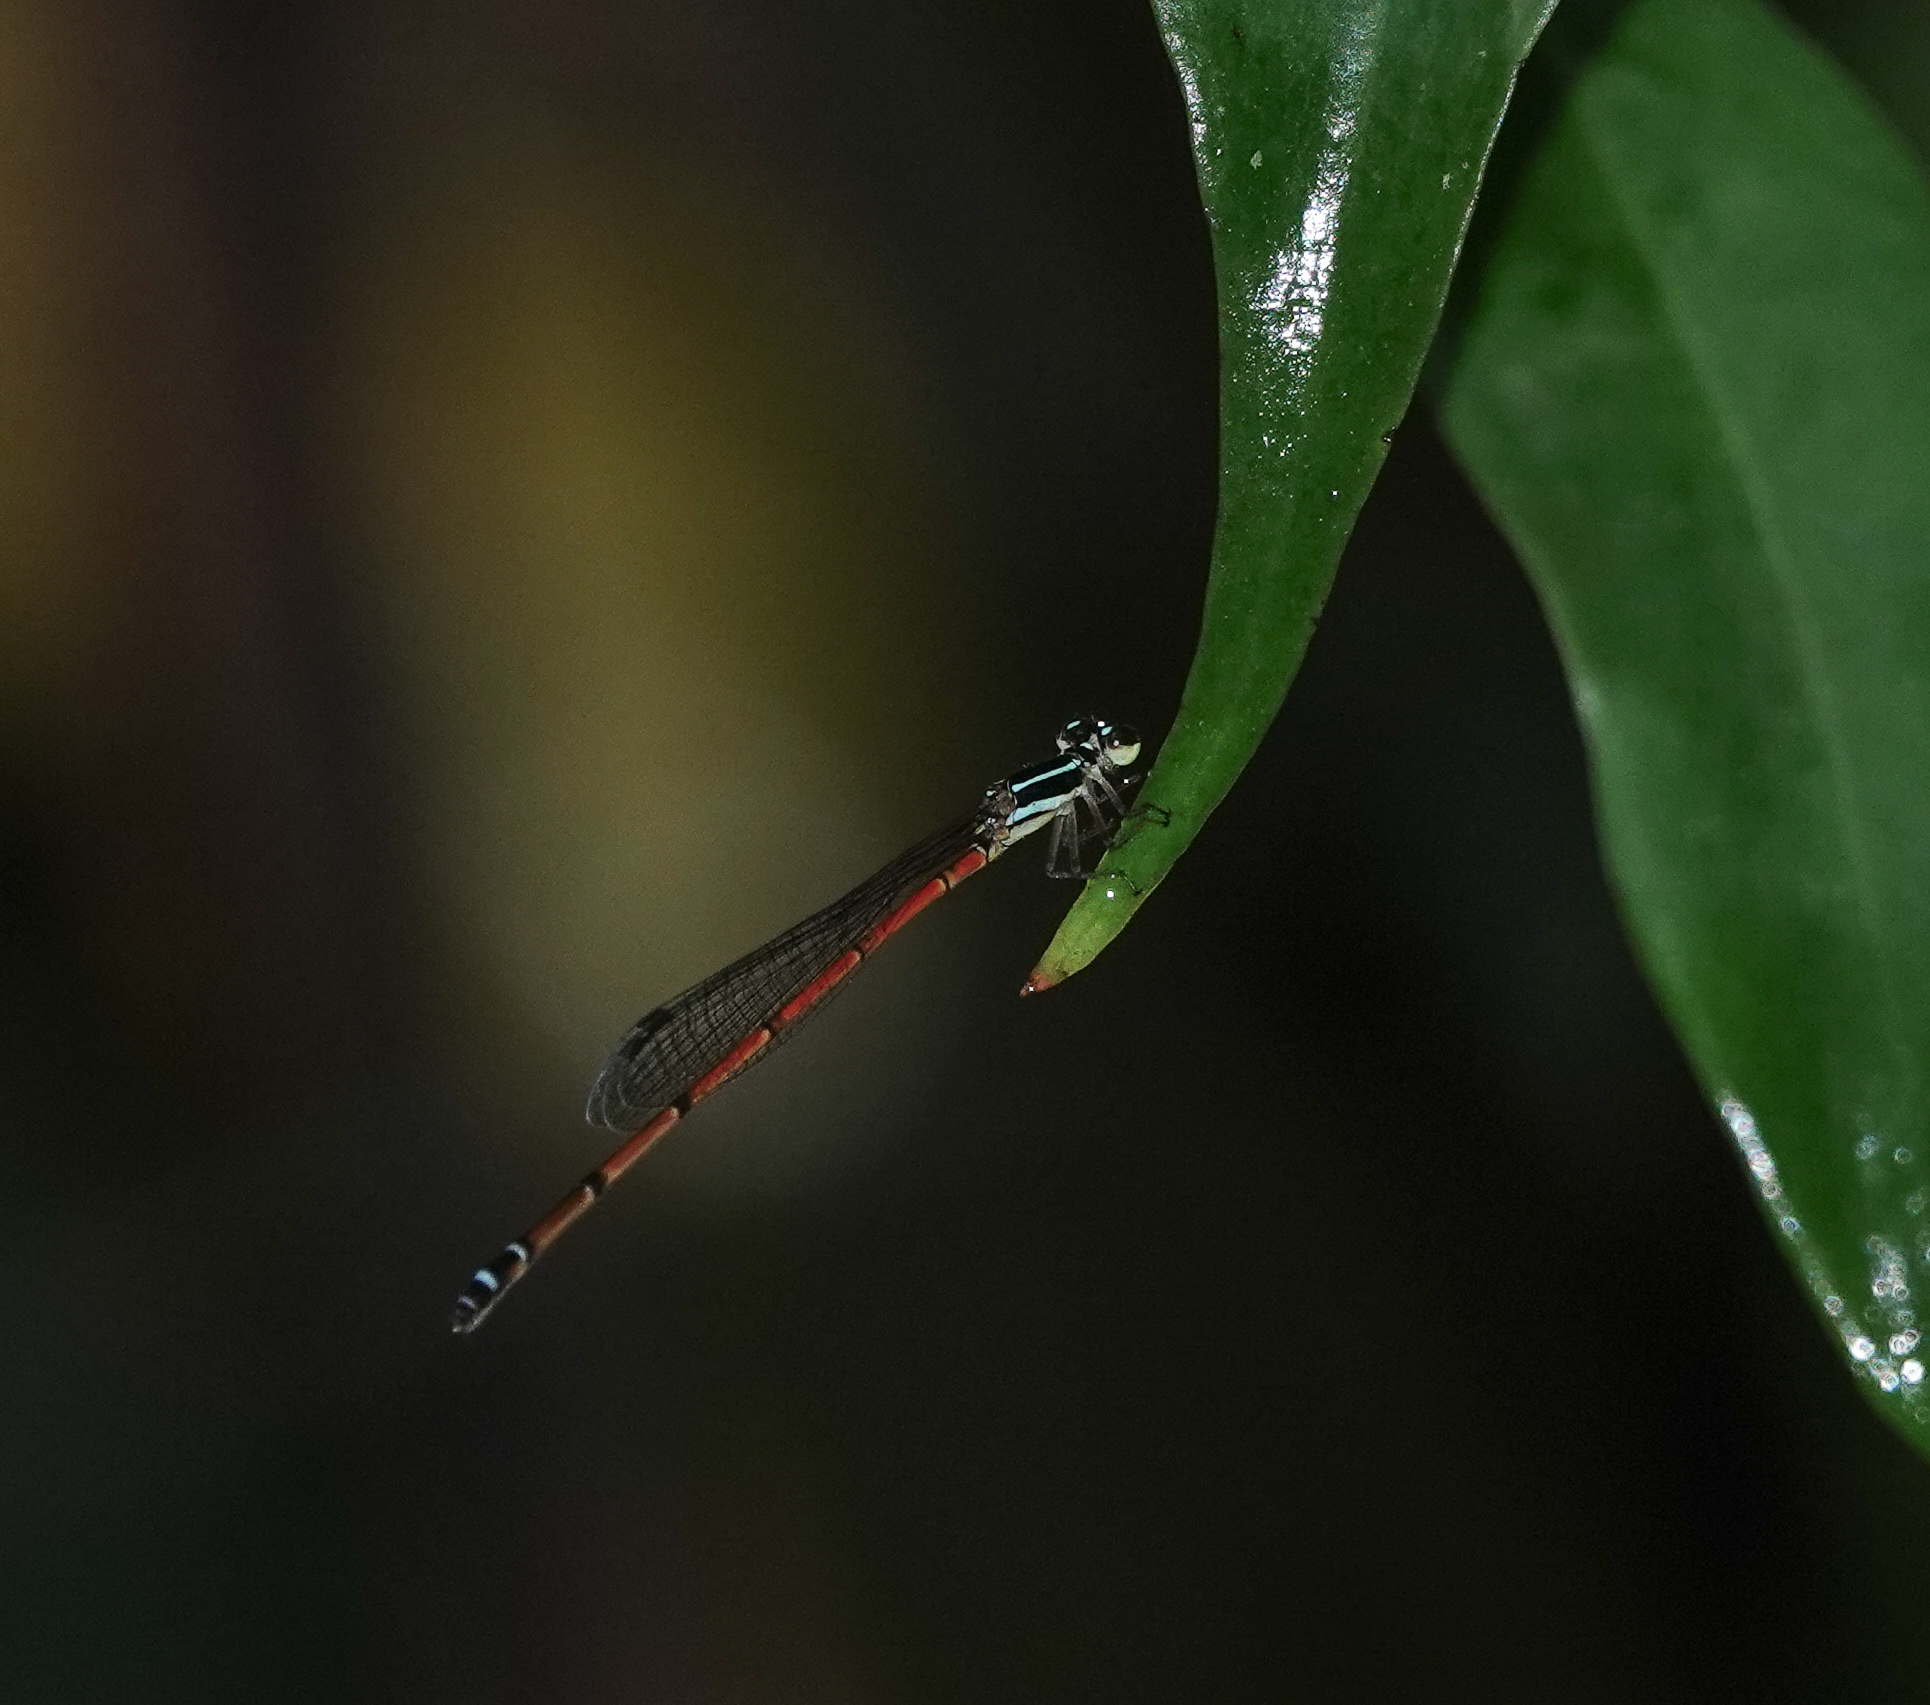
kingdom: Animalia
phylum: Arthropoda
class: Insecta
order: Odonata
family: Coenagrionidae
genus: Mortonagrion
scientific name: Mortonagrion aborense
